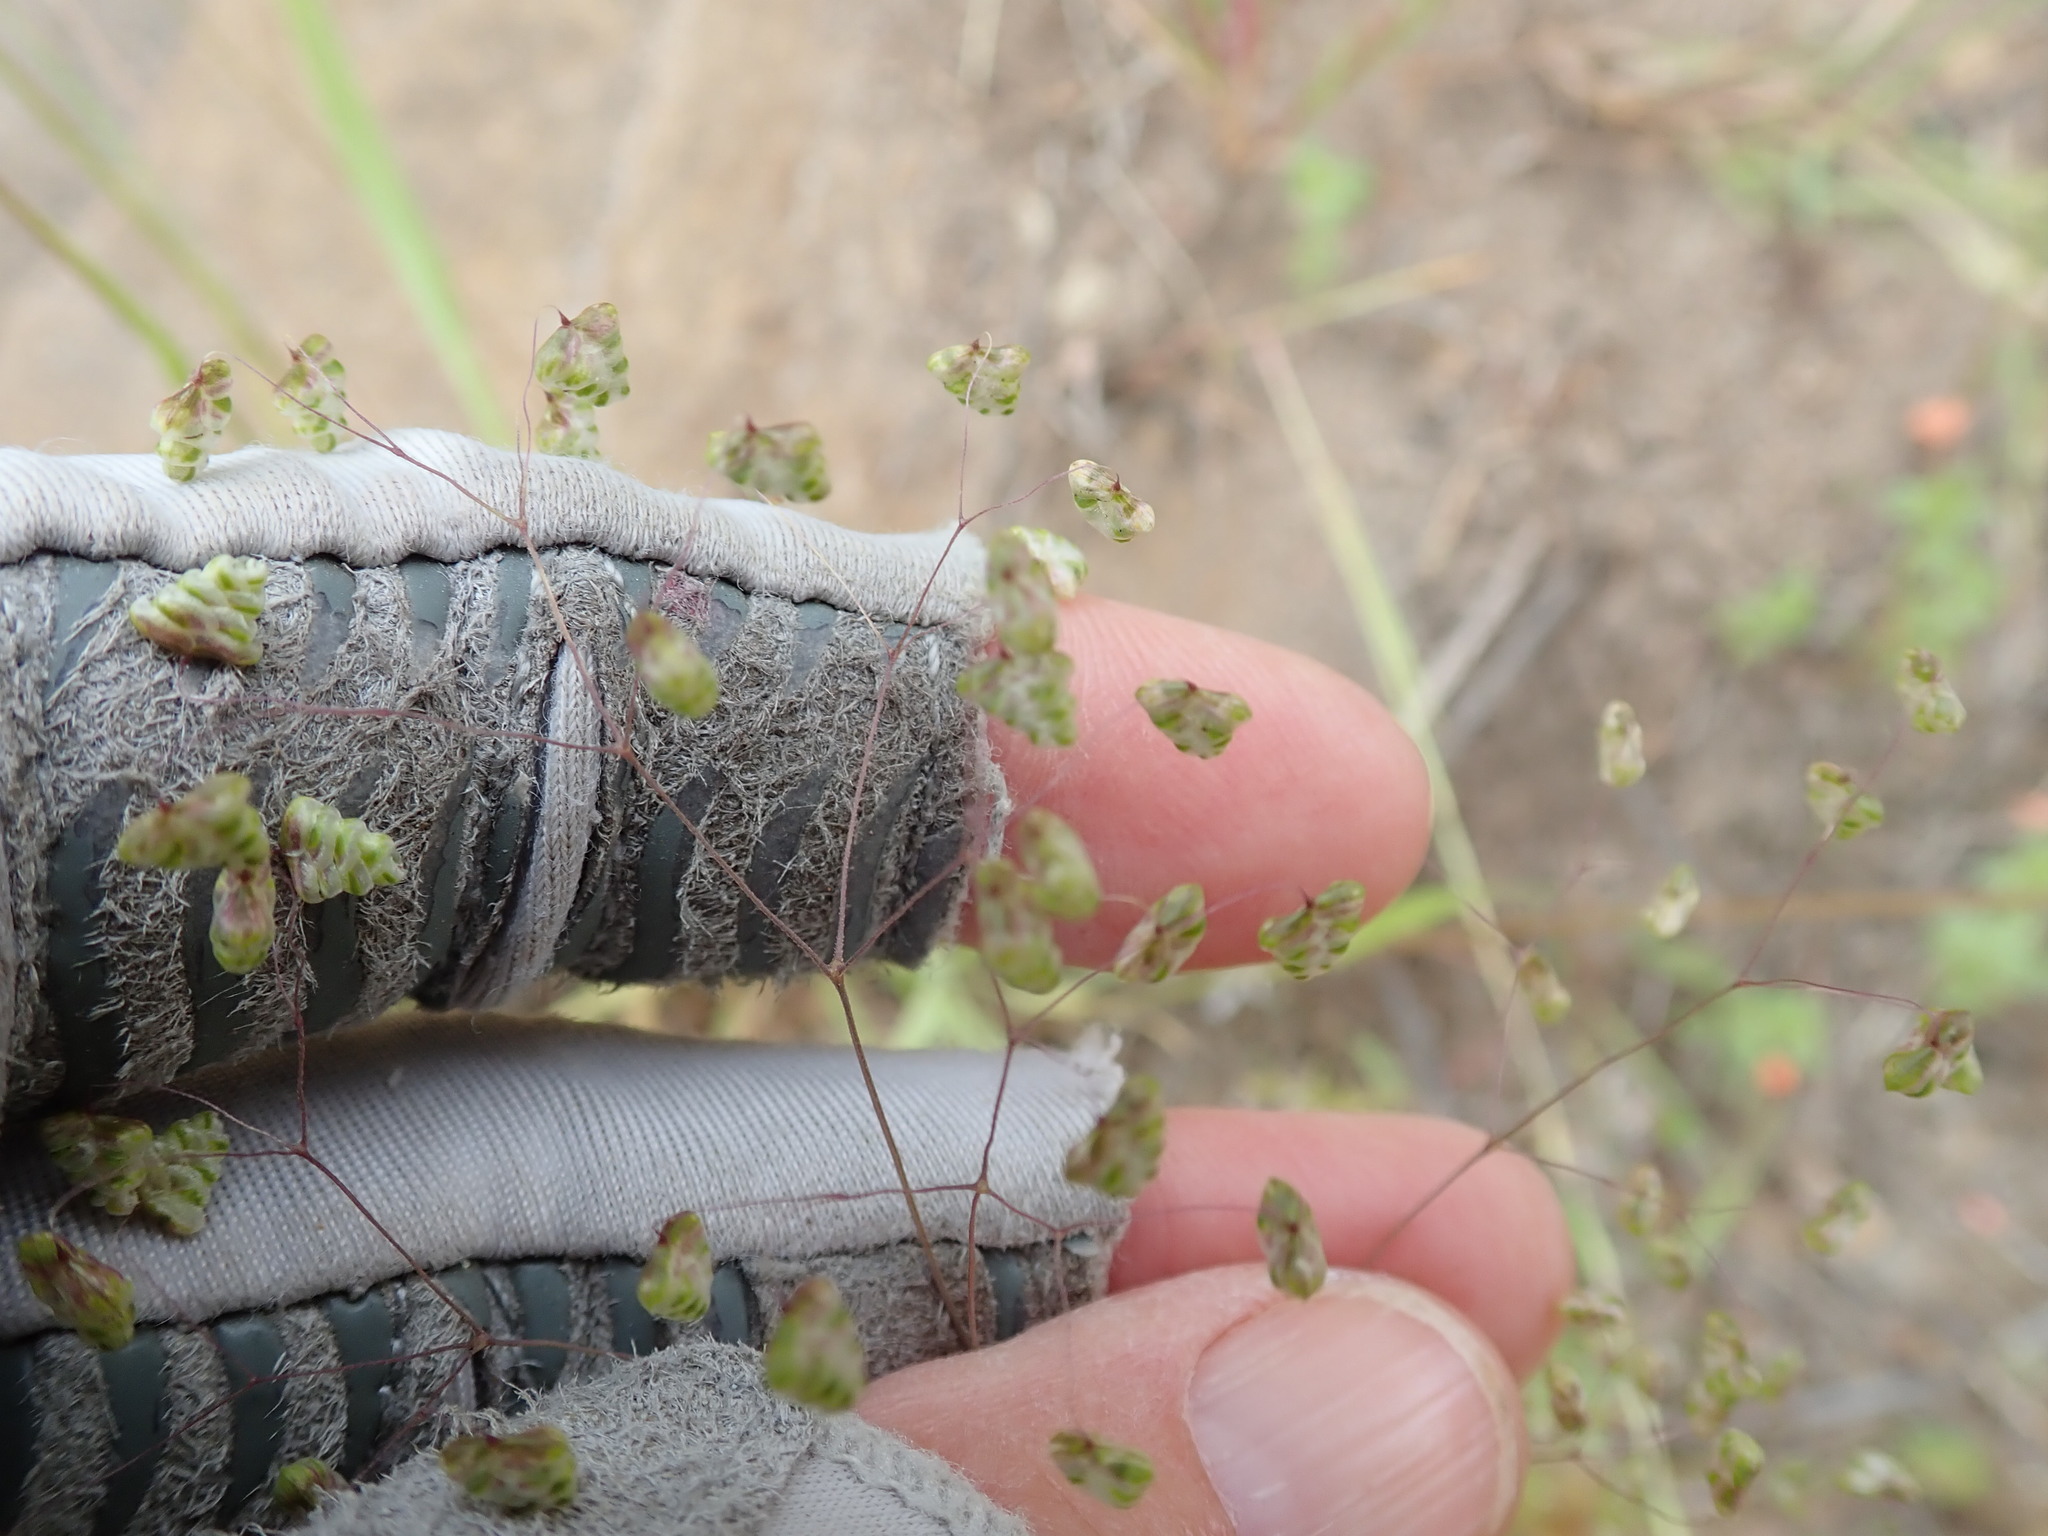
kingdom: Plantae
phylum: Tracheophyta
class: Liliopsida
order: Poales
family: Poaceae
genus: Briza
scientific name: Briza minor
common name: Lesser quaking-grass
